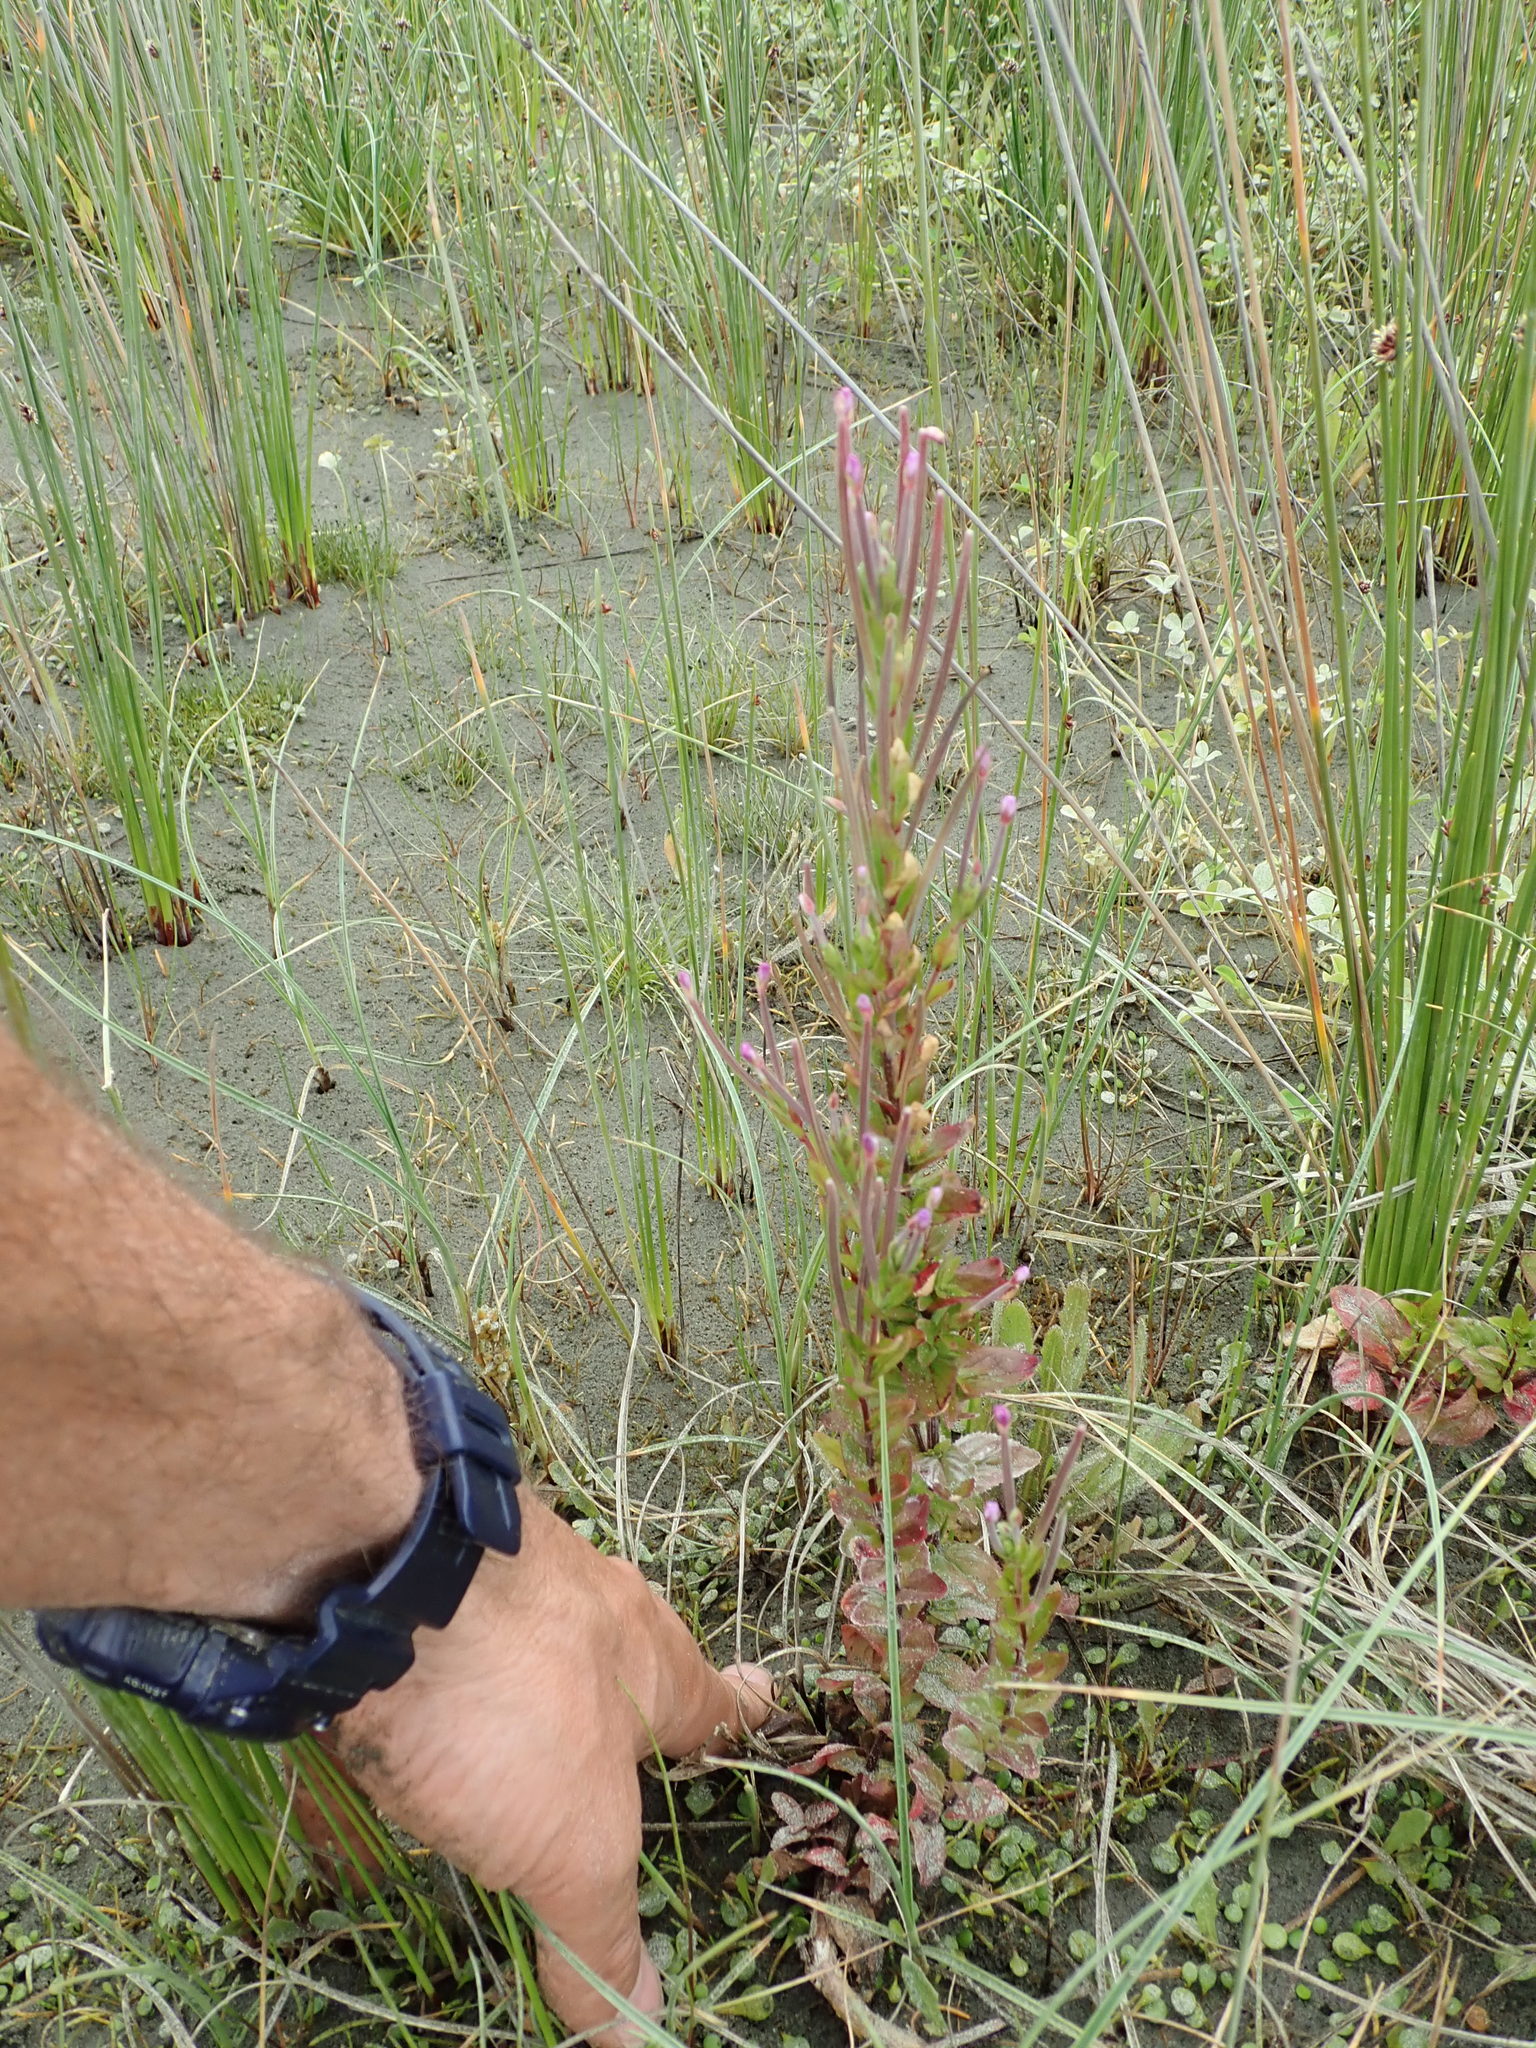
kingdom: Plantae
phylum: Tracheophyta
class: Magnoliopsida
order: Myrtales
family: Onagraceae
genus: Epilobium
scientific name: Epilobium billardiereanum
